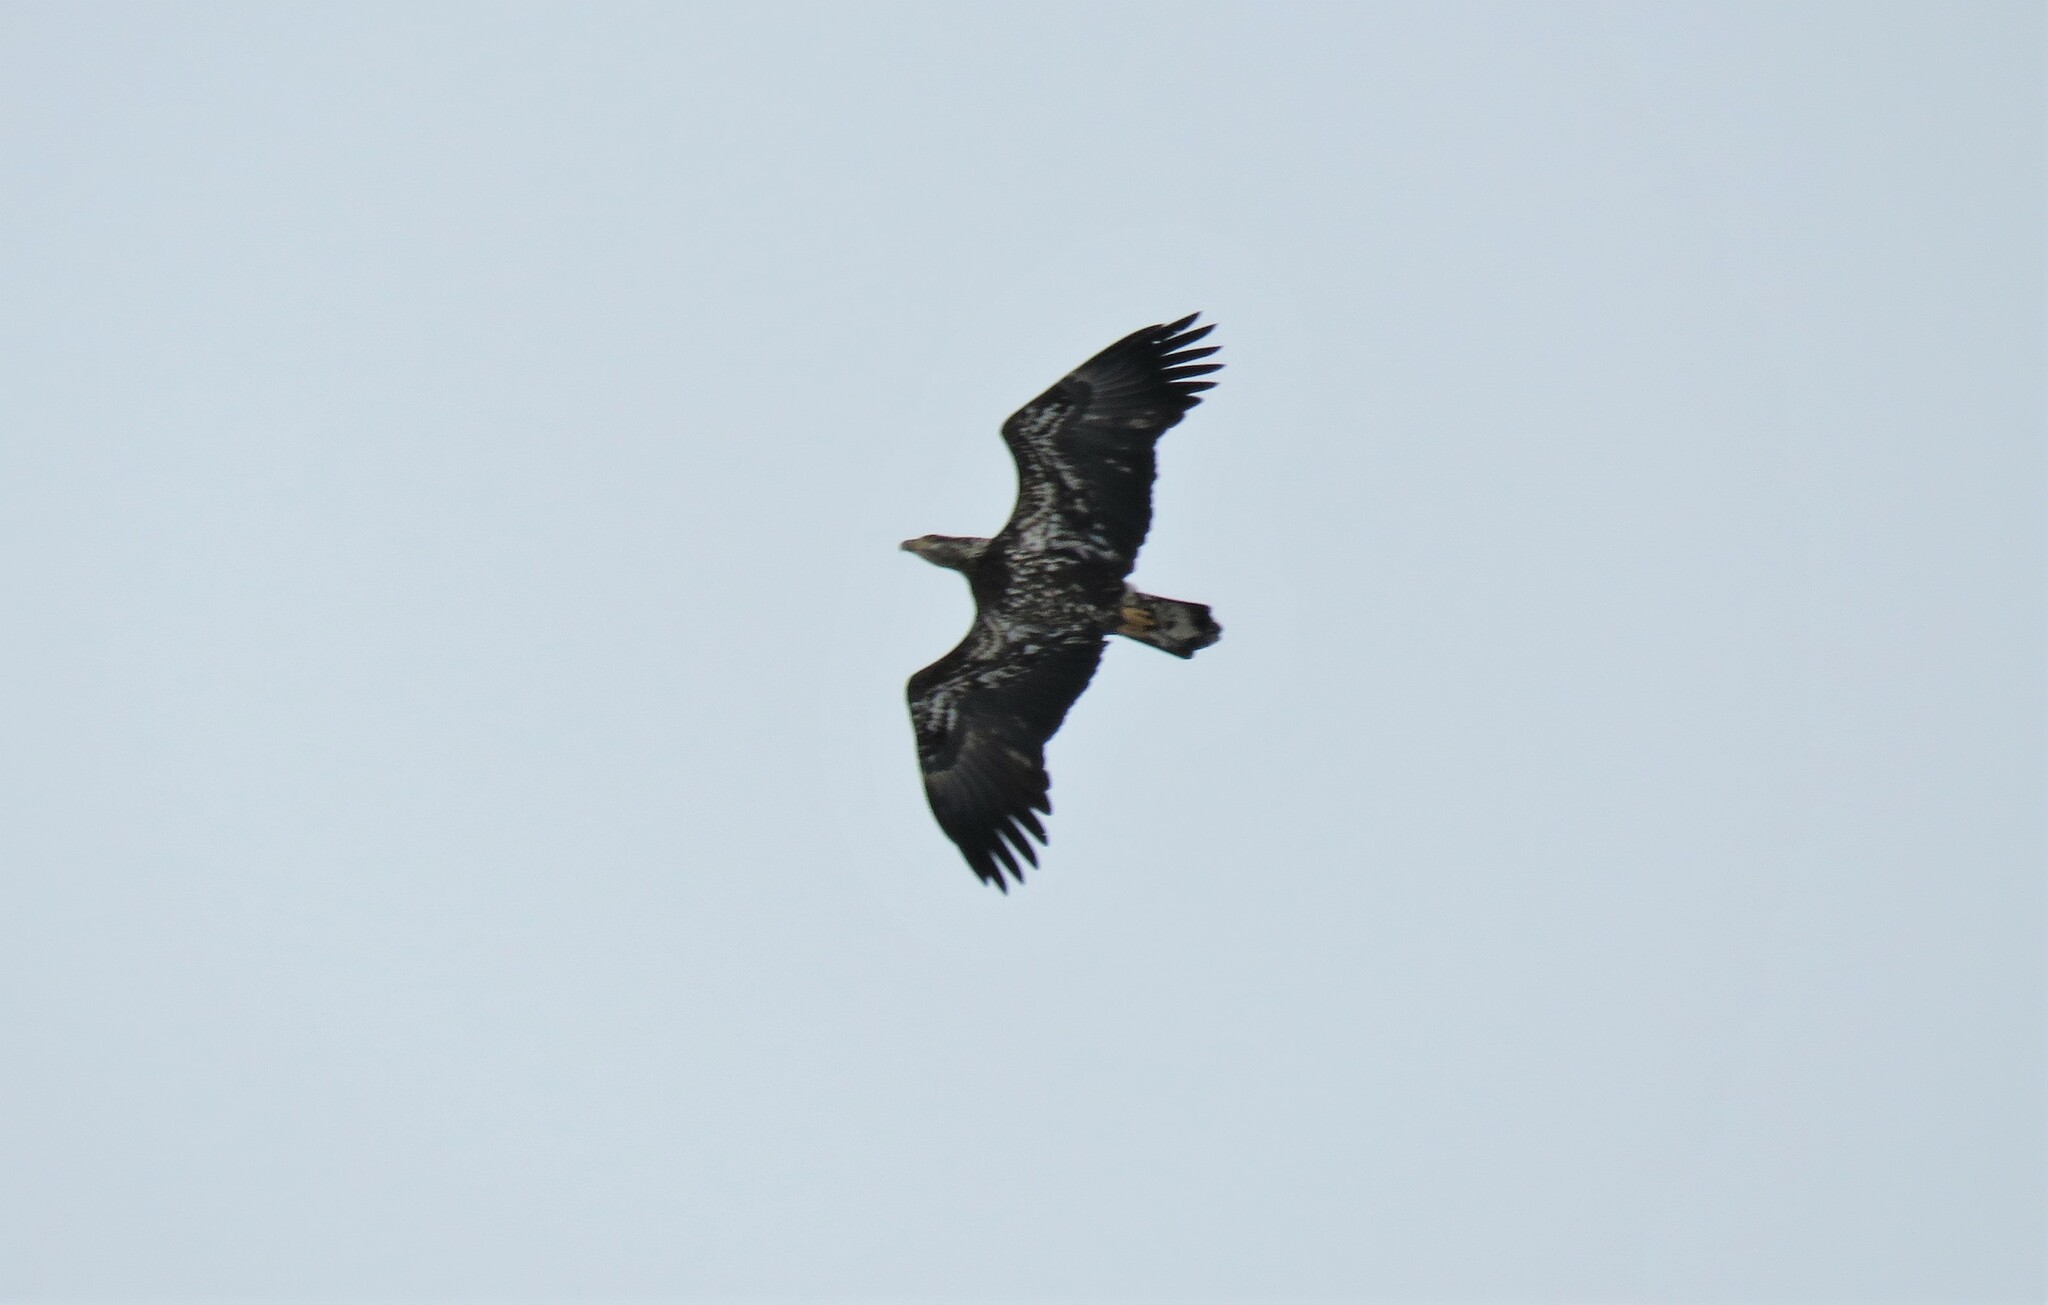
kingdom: Animalia
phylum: Chordata
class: Aves
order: Accipitriformes
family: Accipitridae
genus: Haliaeetus
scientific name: Haliaeetus leucocephalus
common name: Bald eagle
